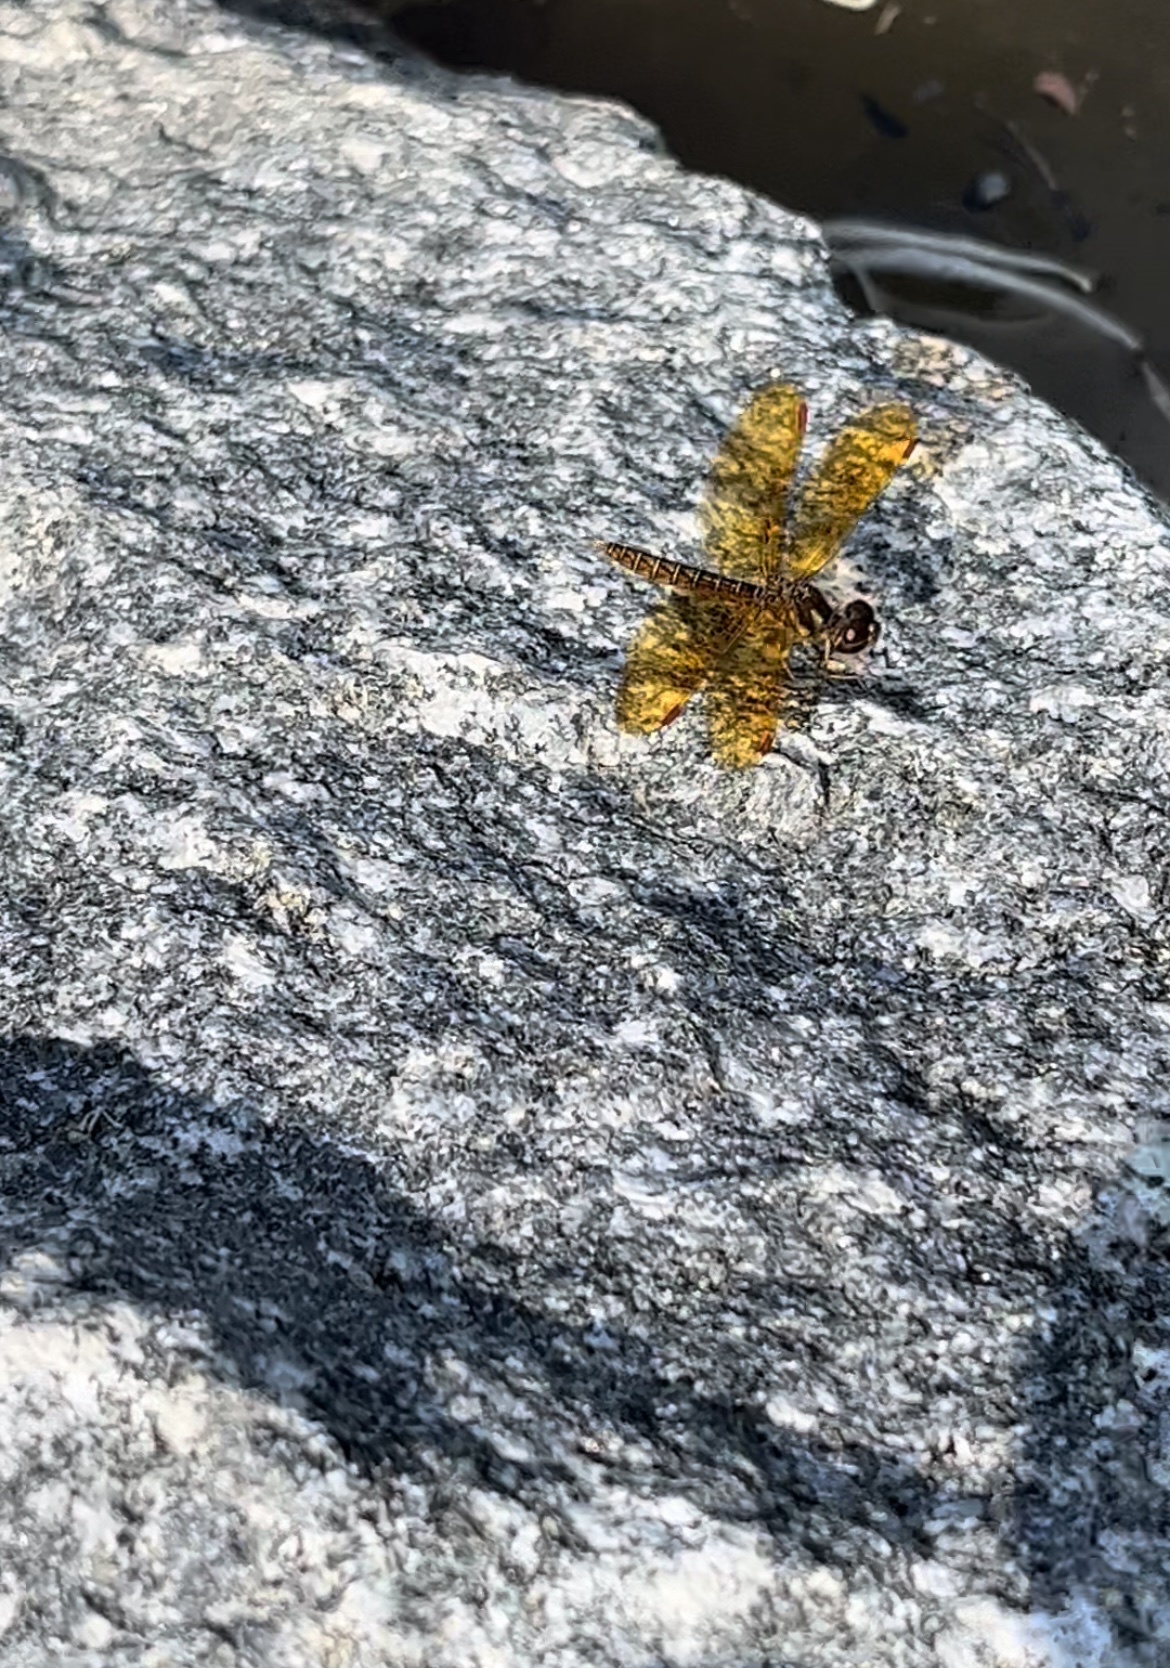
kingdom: Animalia
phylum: Arthropoda
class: Insecta
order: Odonata
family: Libellulidae
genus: Perithemis
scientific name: Perithemis tenera
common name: Eastern amberwing
